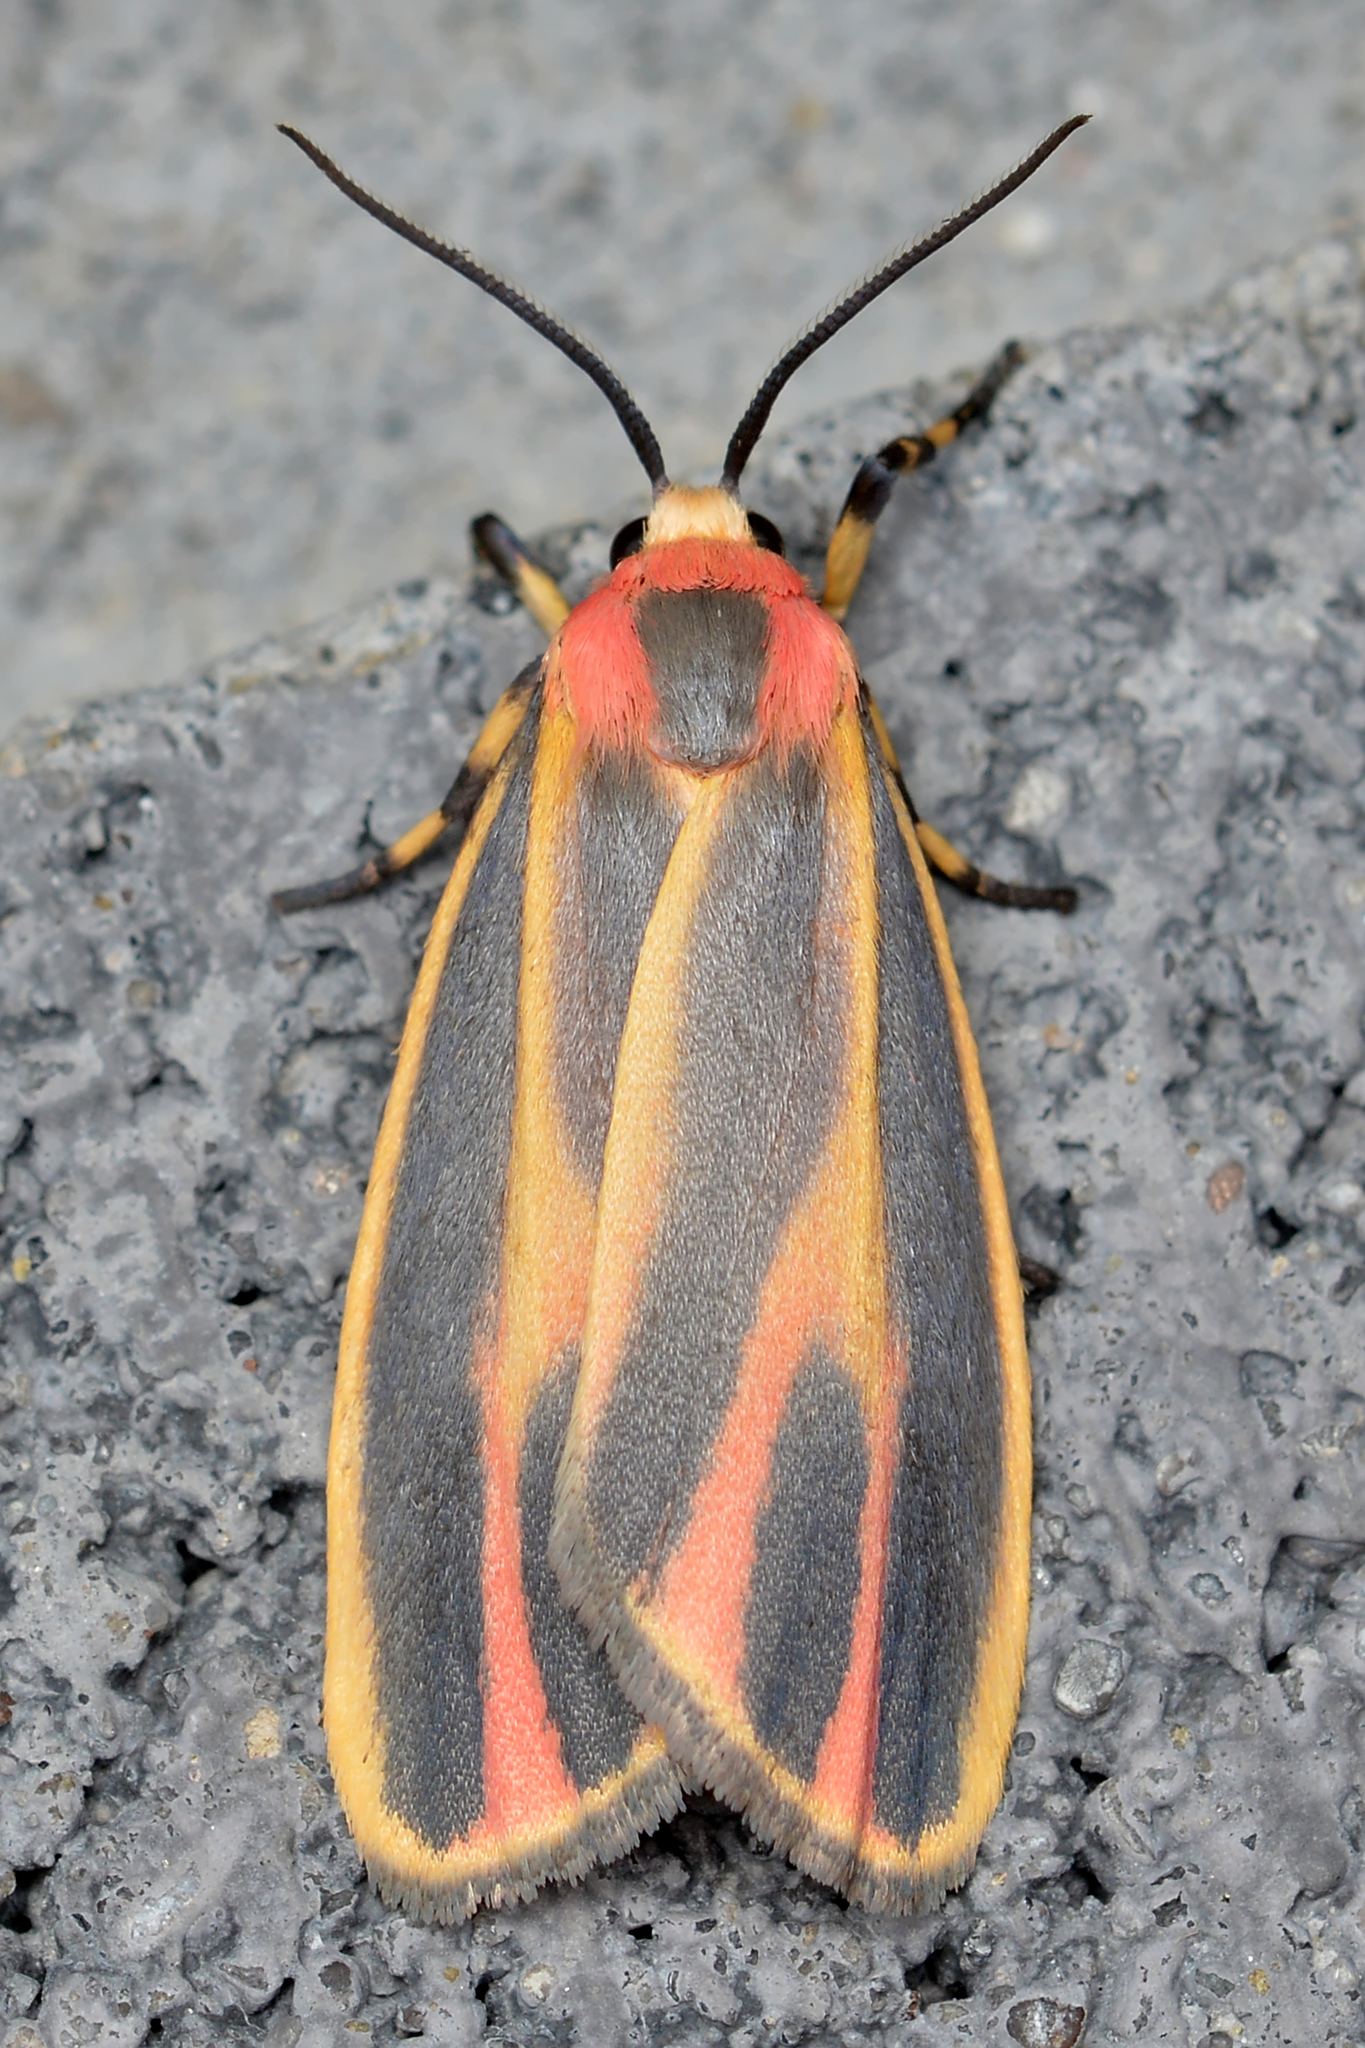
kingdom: Animalia
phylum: Arthropoda
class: Insecta
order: Lepidoptera
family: Erebidae
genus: Hypoprepia
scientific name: Hypoprepia fucosa
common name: Painted lichen moth
